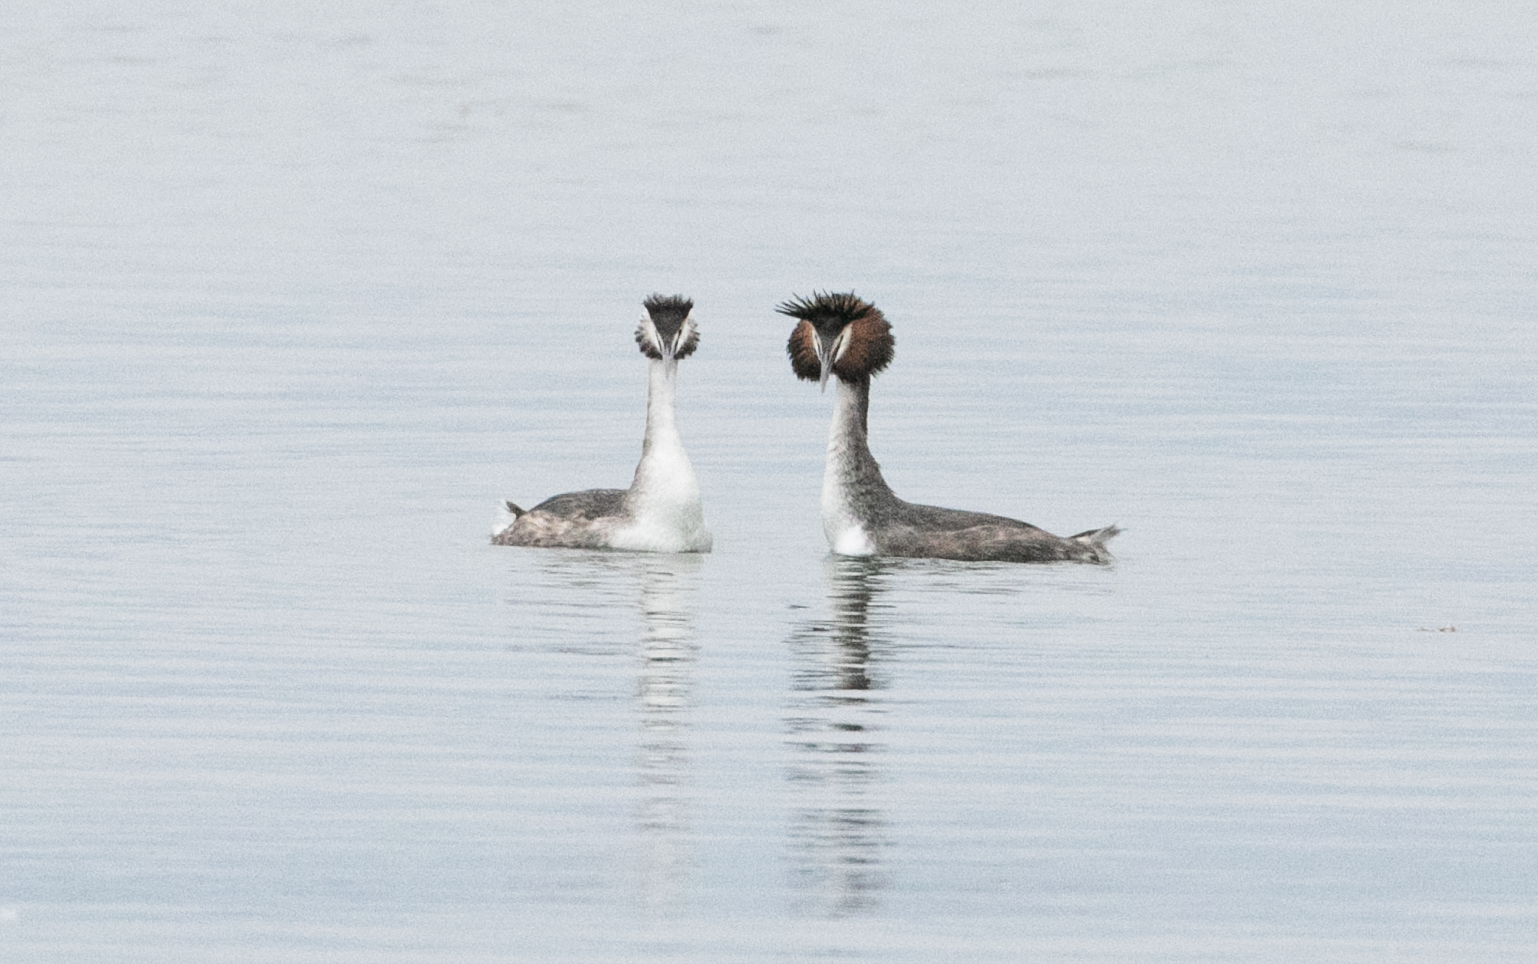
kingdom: Animalia
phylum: Chordata
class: Aves
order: Podicipediformes
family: Podicipedidae
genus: Podiceps
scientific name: Podiceps cristatus
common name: Great crested grebe
